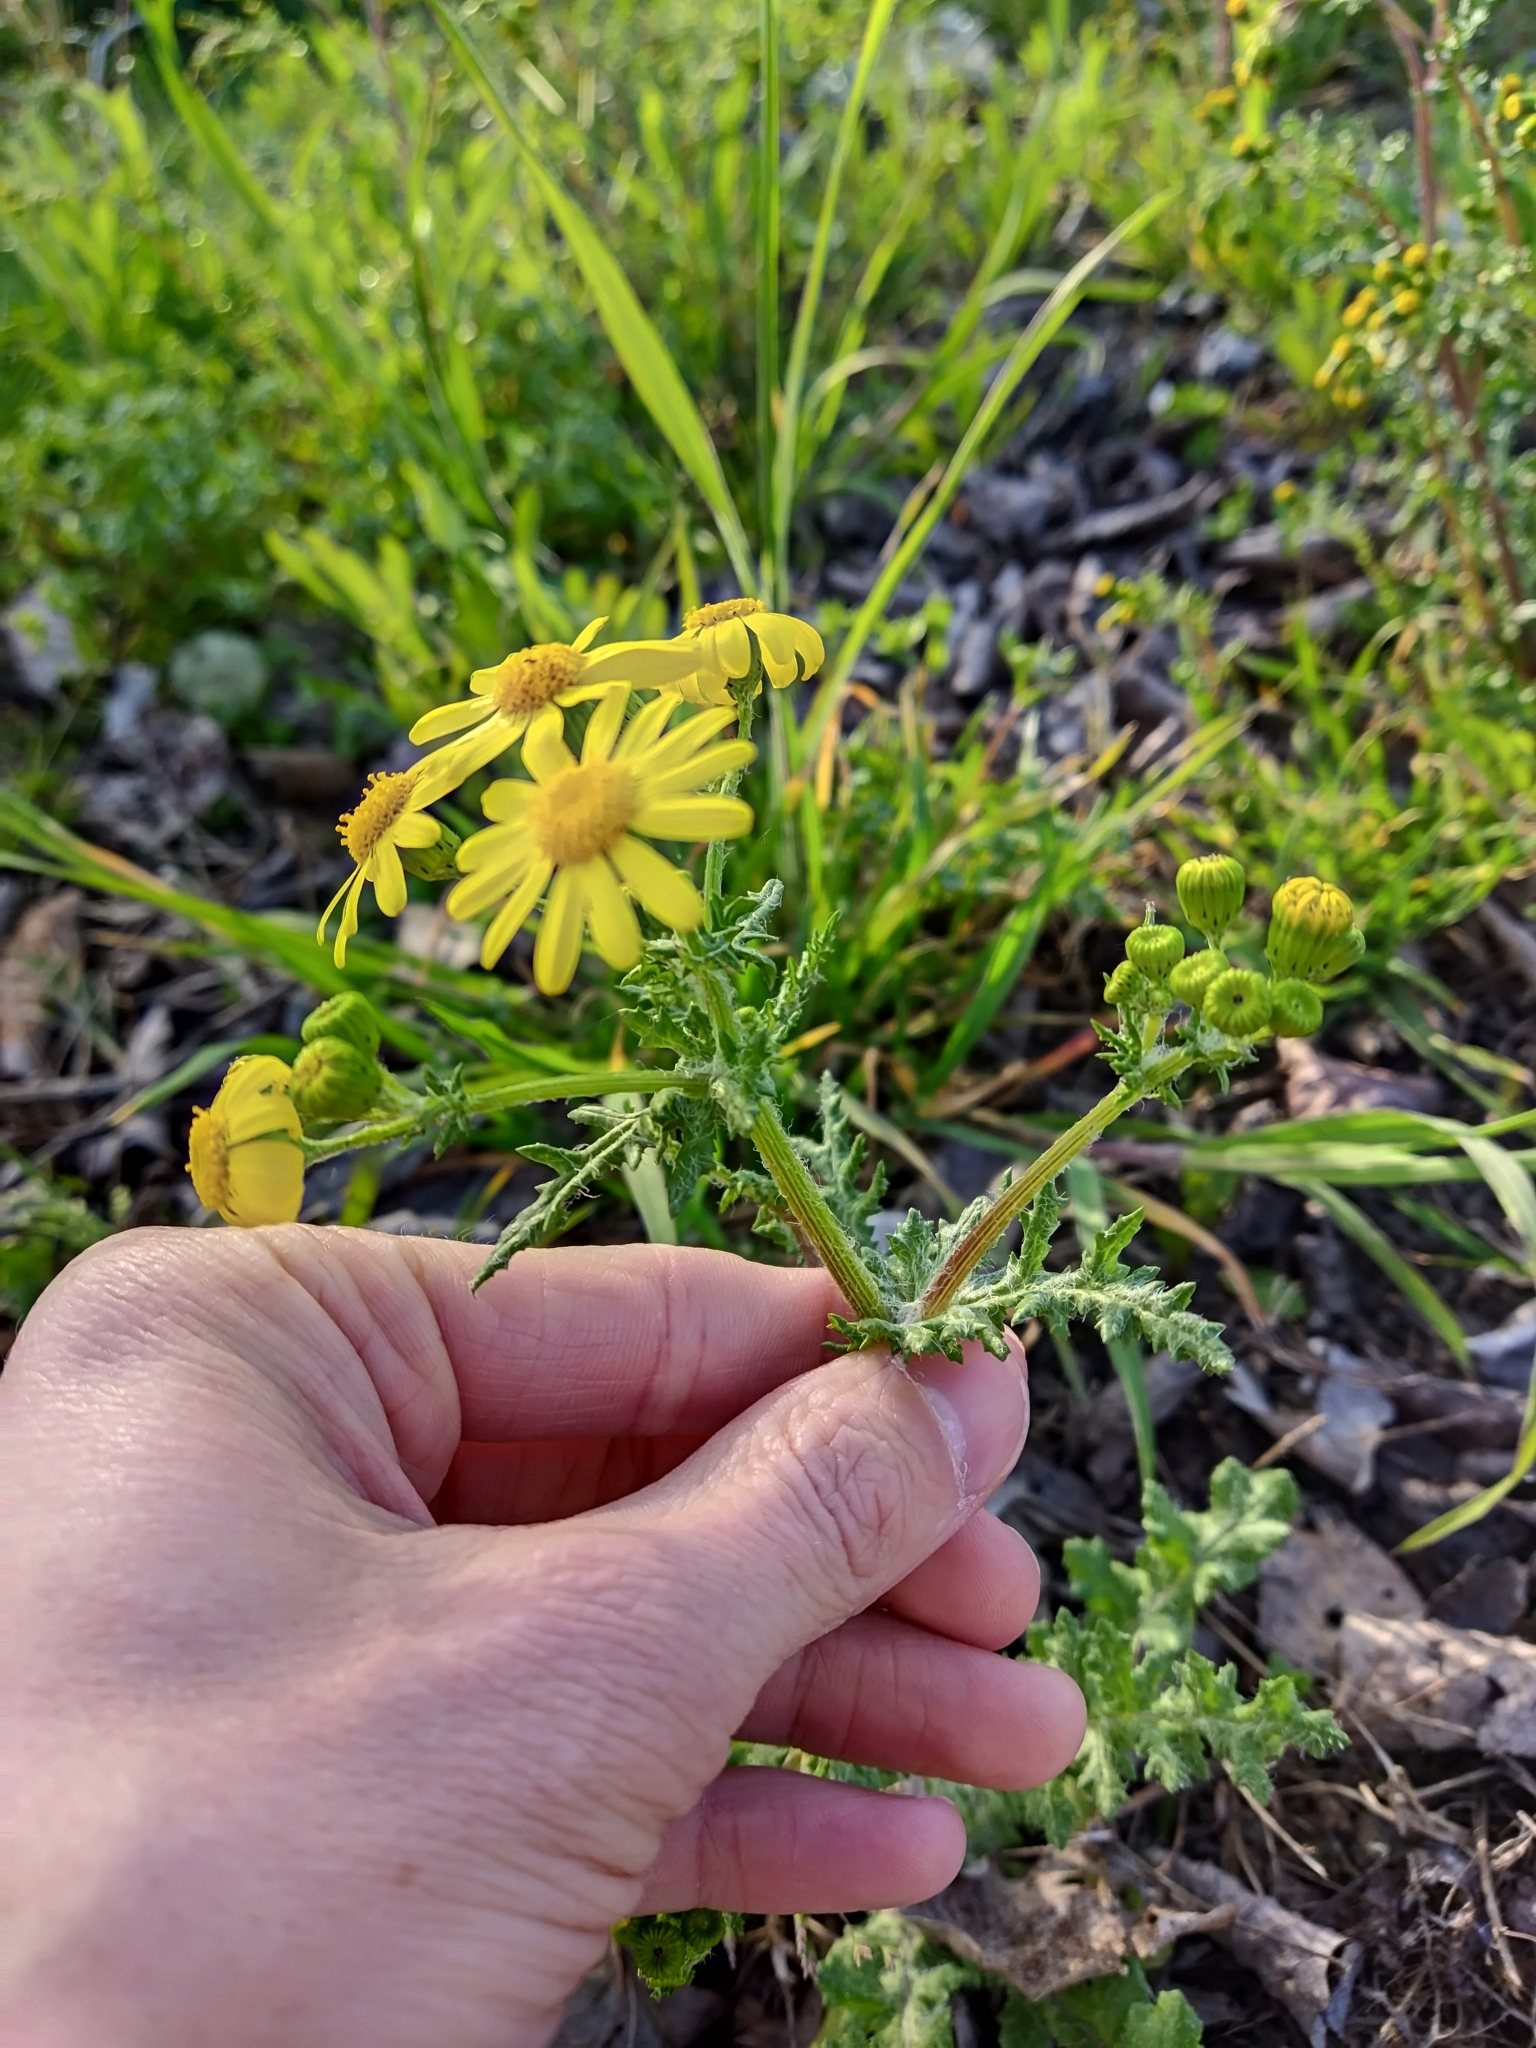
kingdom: Plantae
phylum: Tracheophyta
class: Magnoliopsida
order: Asterales
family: Asteraceae
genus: Senecio
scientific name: Senecio vernalis
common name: Eastern groundsel
